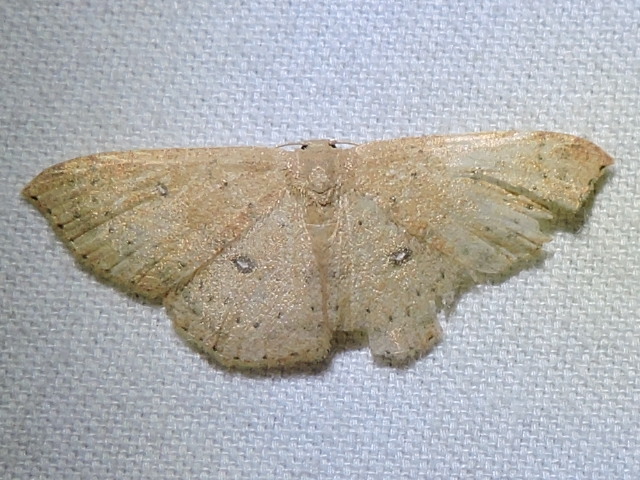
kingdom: Animalia
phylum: Arthropoda
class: Insecta
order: Lepidoptera
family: Geometridae
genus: Cyclophora
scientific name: Cyclophora packardi
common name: Packard's wave
